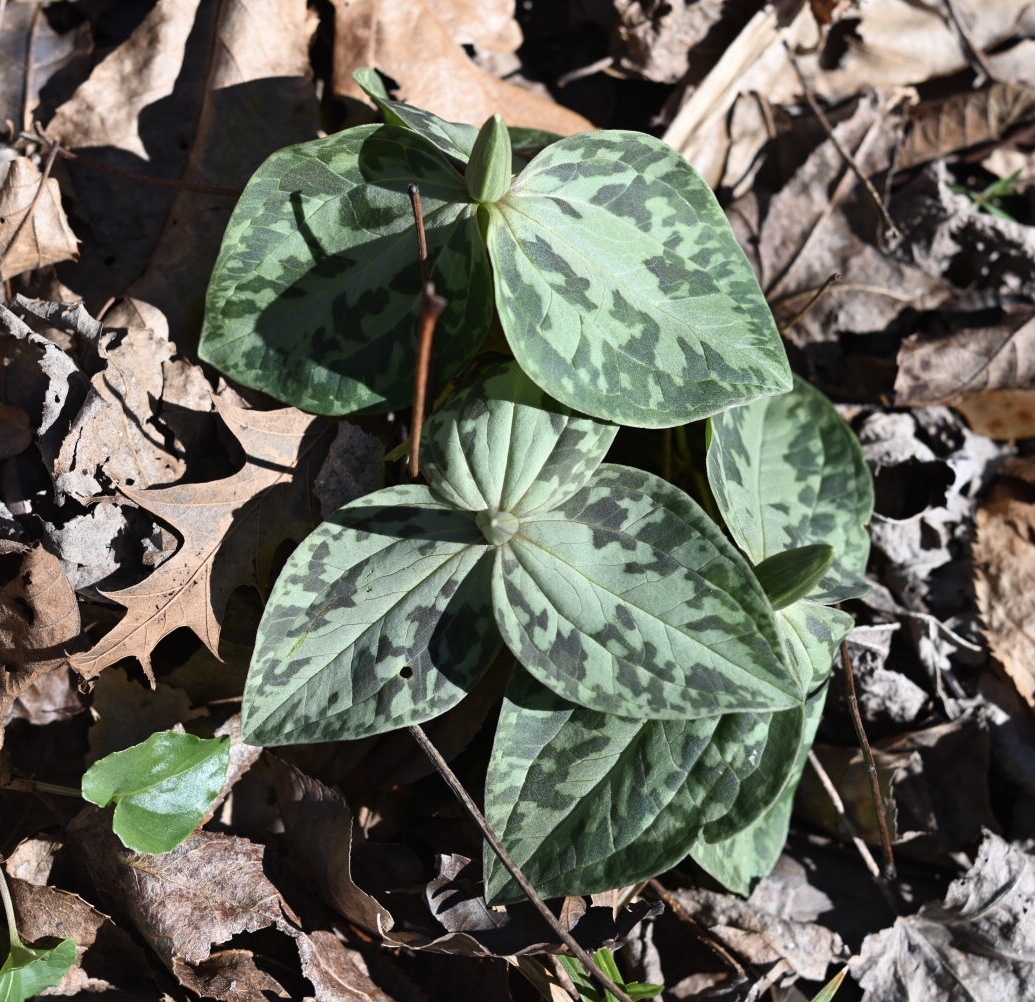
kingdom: Plantae
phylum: Tracheophyta
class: Liliopsida
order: Liliales
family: Melanthiaceae
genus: Trillium
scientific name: Trillium foetidissimum
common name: Mississippi river trillium
